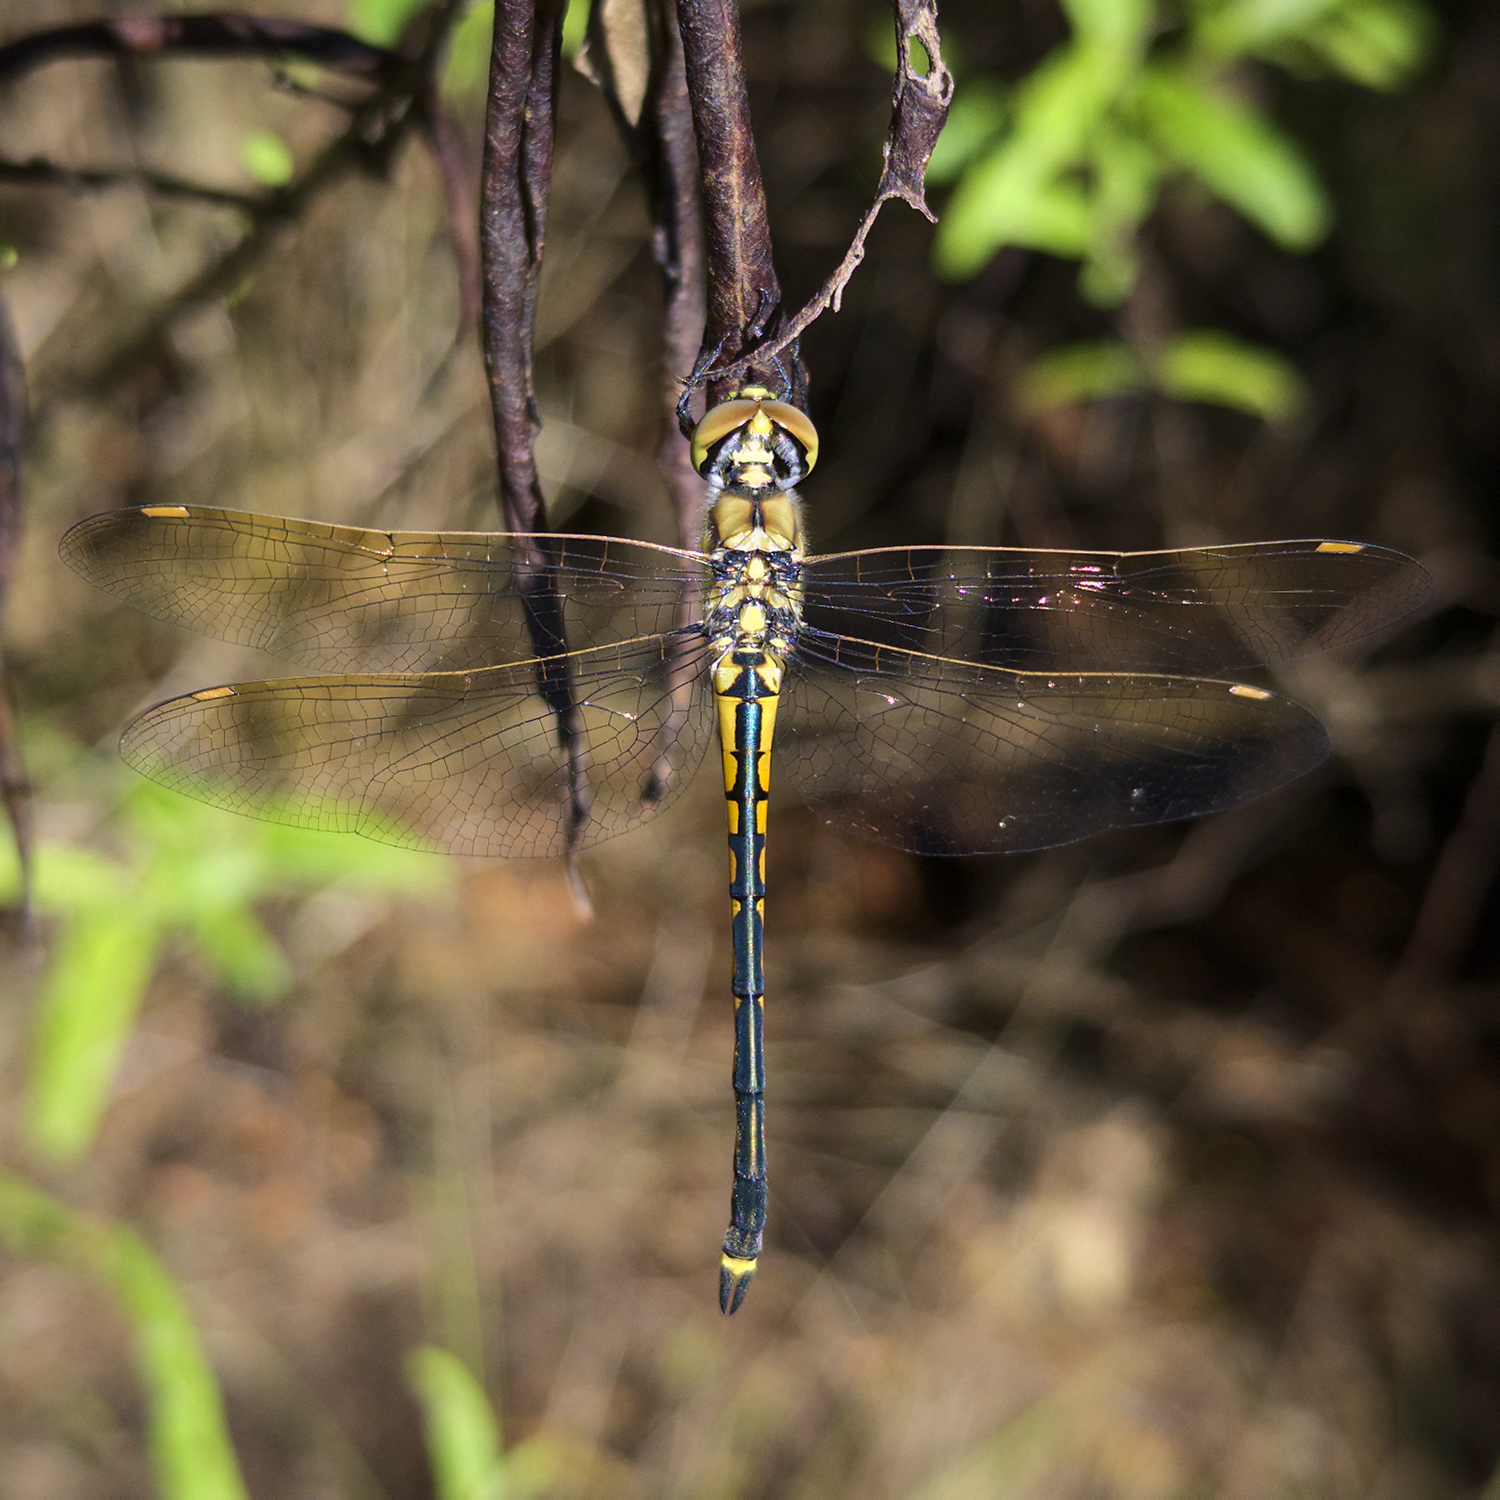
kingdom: Animalia
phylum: Arthropoda
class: Insecta
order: Odonata
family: Corduliidae
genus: Hemicordulia
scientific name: Hemicordulia tau
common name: Tau emerald
